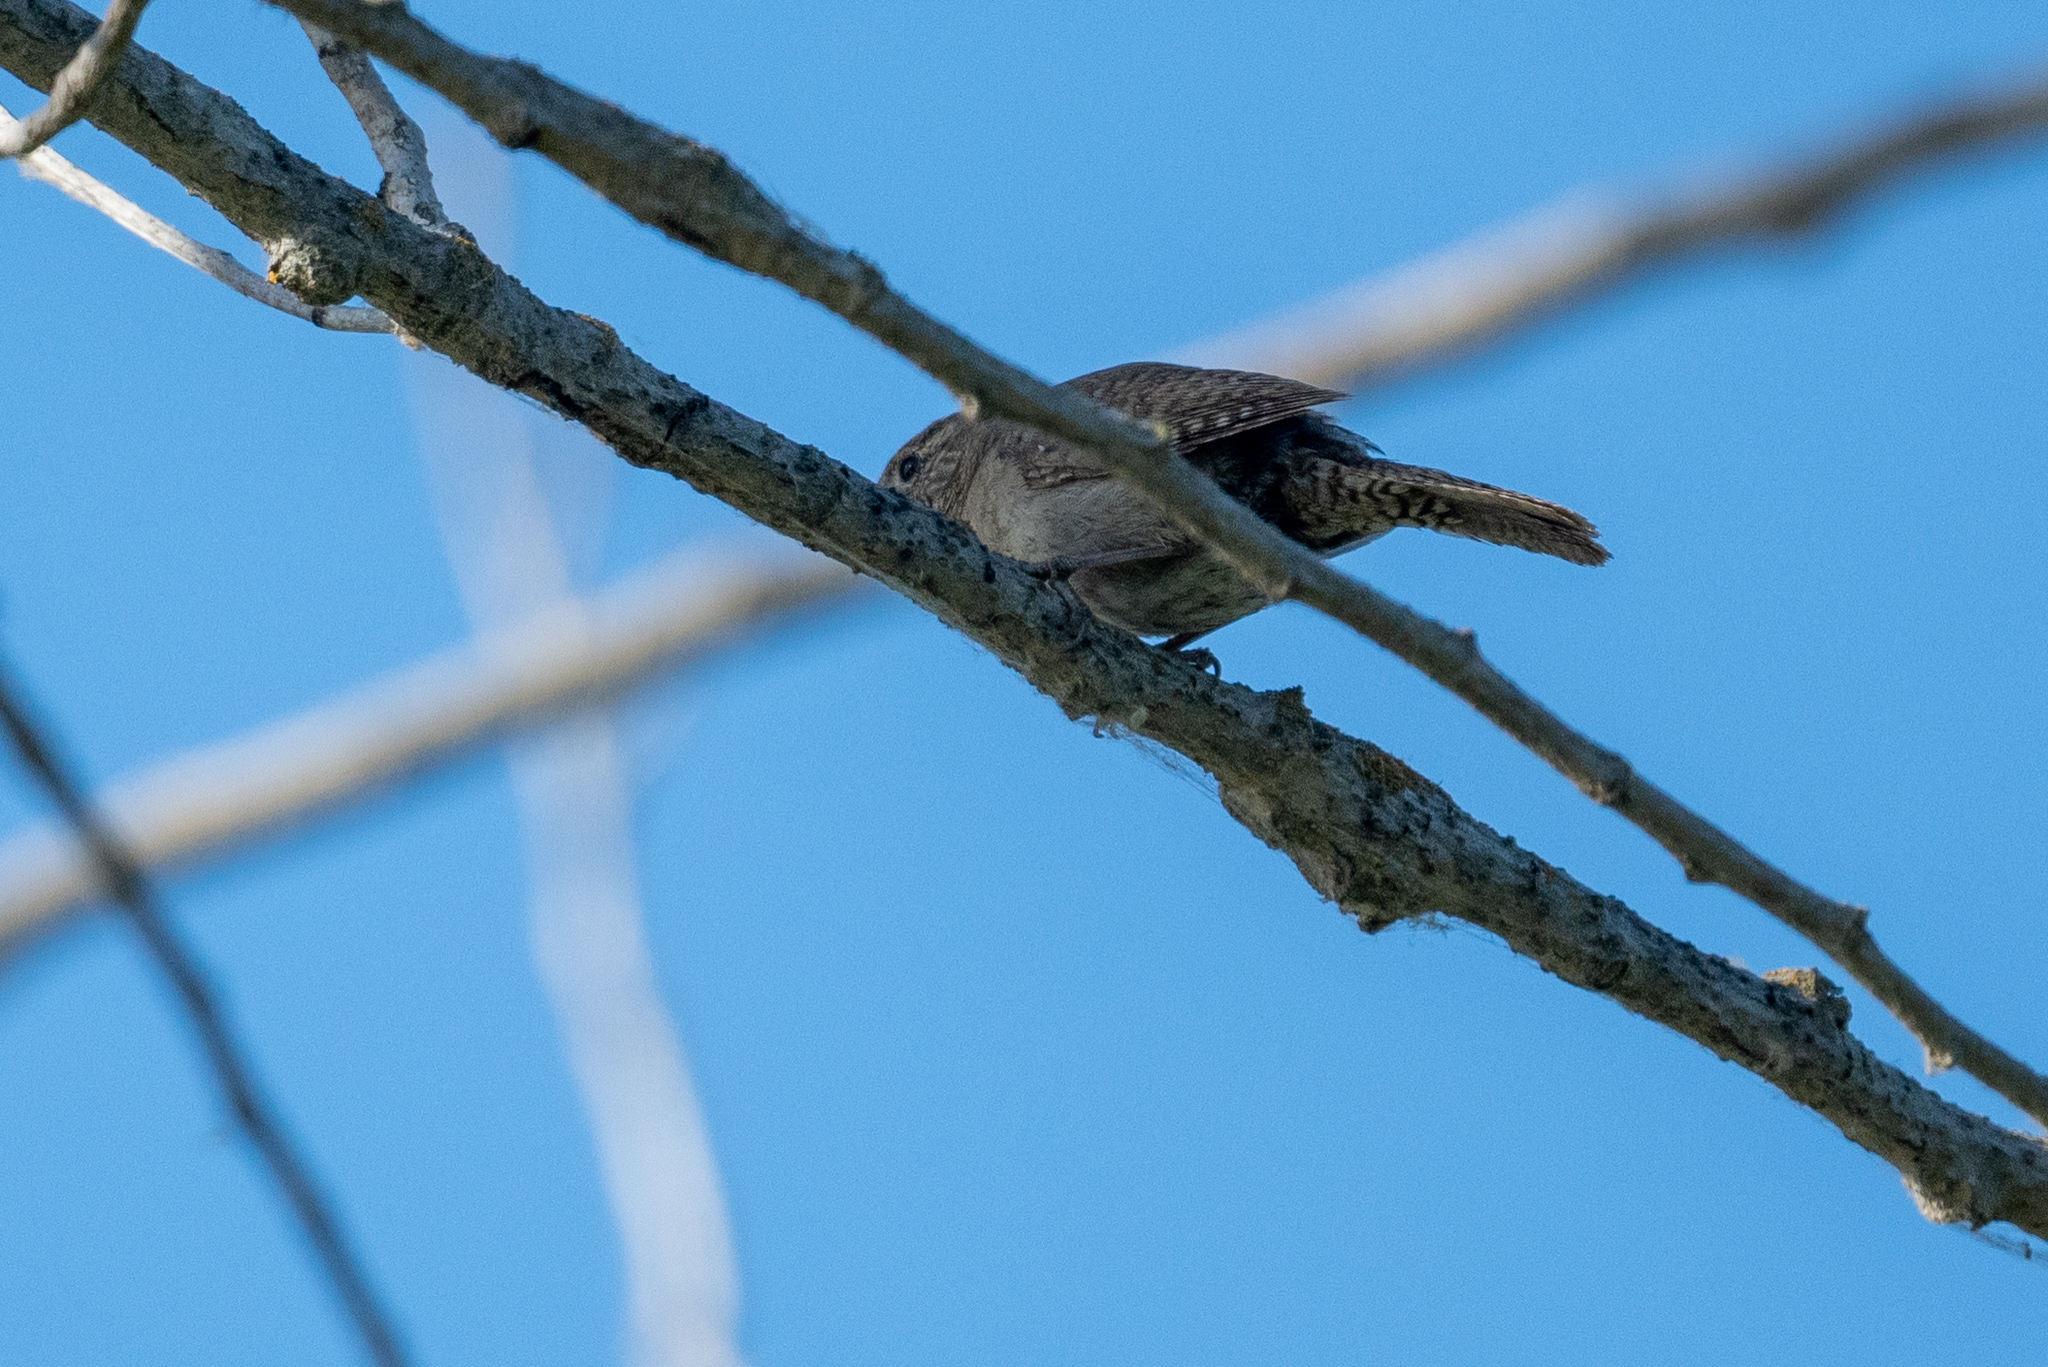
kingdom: Animalia
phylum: Chordata
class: Aves
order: Passeriformes
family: Troglodytidae
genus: Troglodytes
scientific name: Troglodytes aedon
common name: House wren
